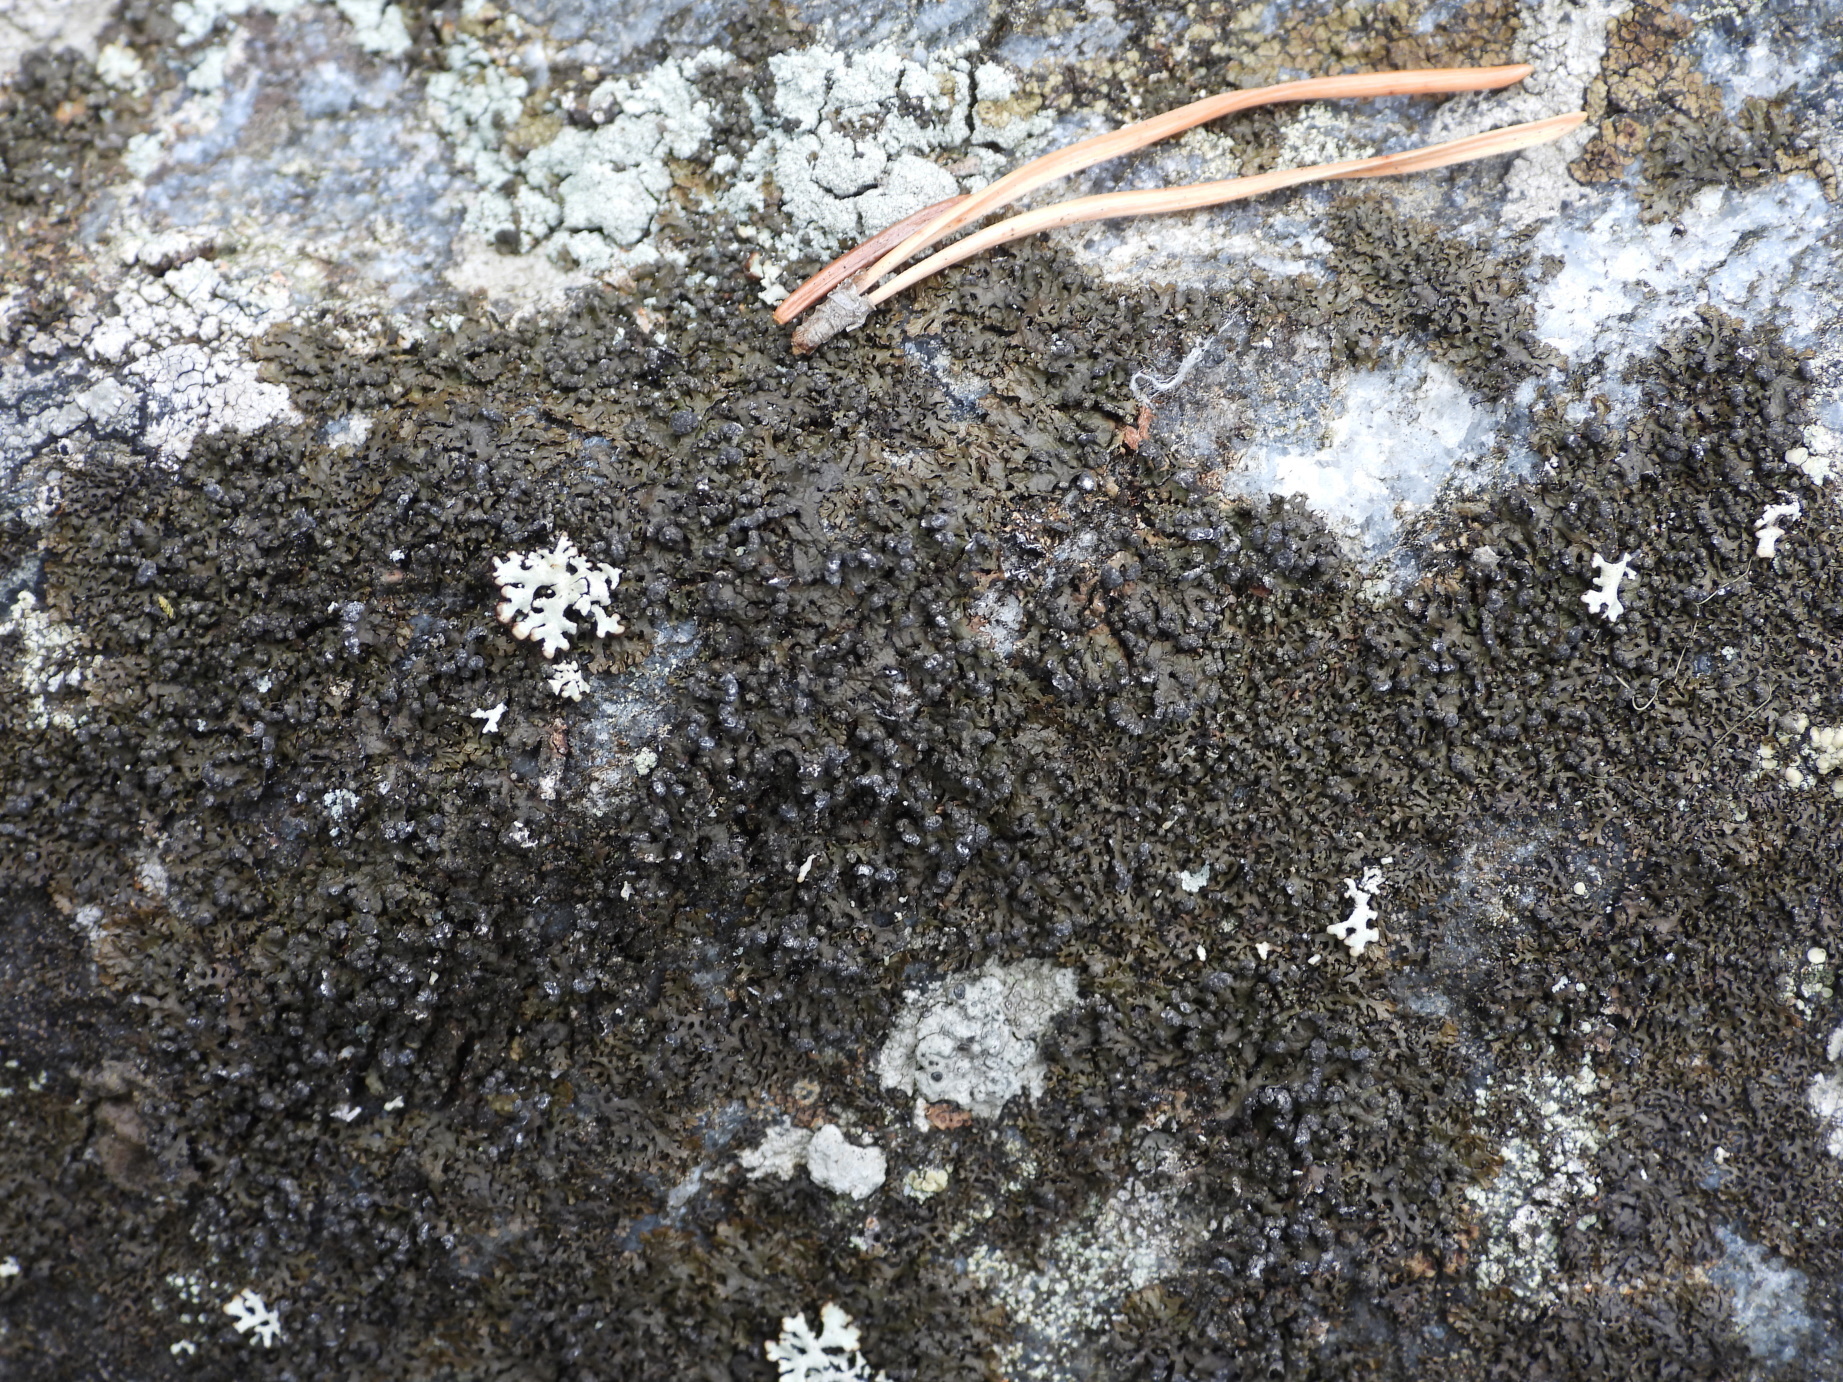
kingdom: Fungi
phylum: Ascomycota
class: Lecanoromycetes
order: Lecanorales
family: Parmeliaceae
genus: Montanelia
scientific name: Montanelia sorediata
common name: Powdered camouflage lichen
